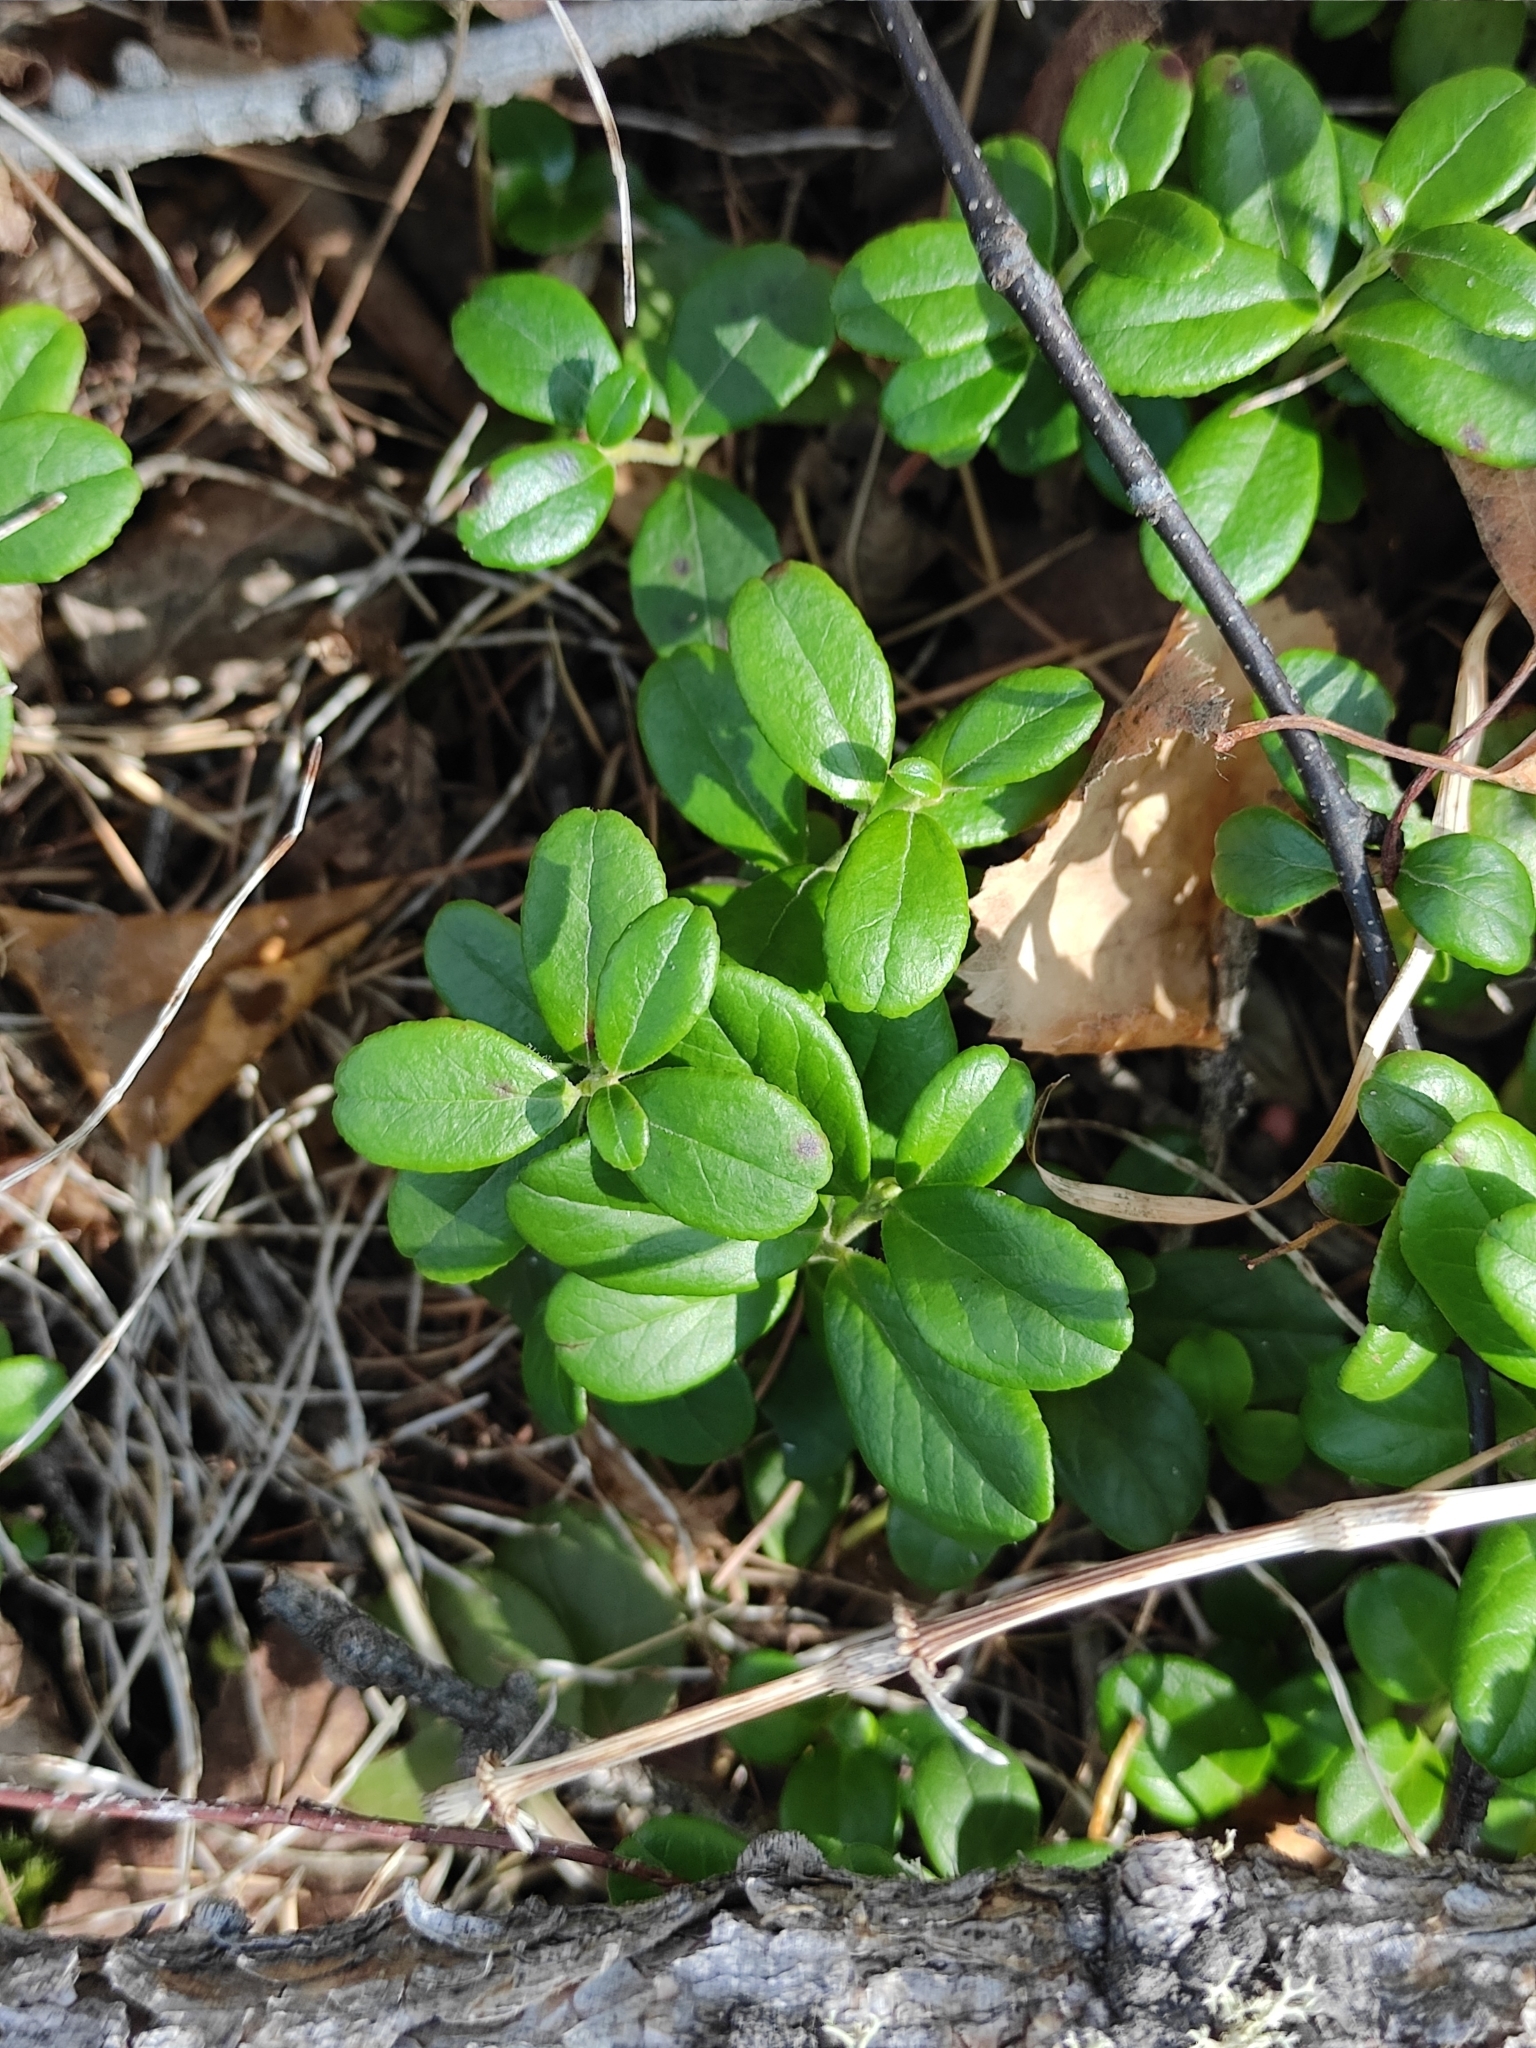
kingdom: Plantae
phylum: Tracheophyta
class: Magnoliopsida
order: Ericales
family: Ericaceae
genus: Vaccinium
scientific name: Vaccinium vitis-idaea
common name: Cowberry
